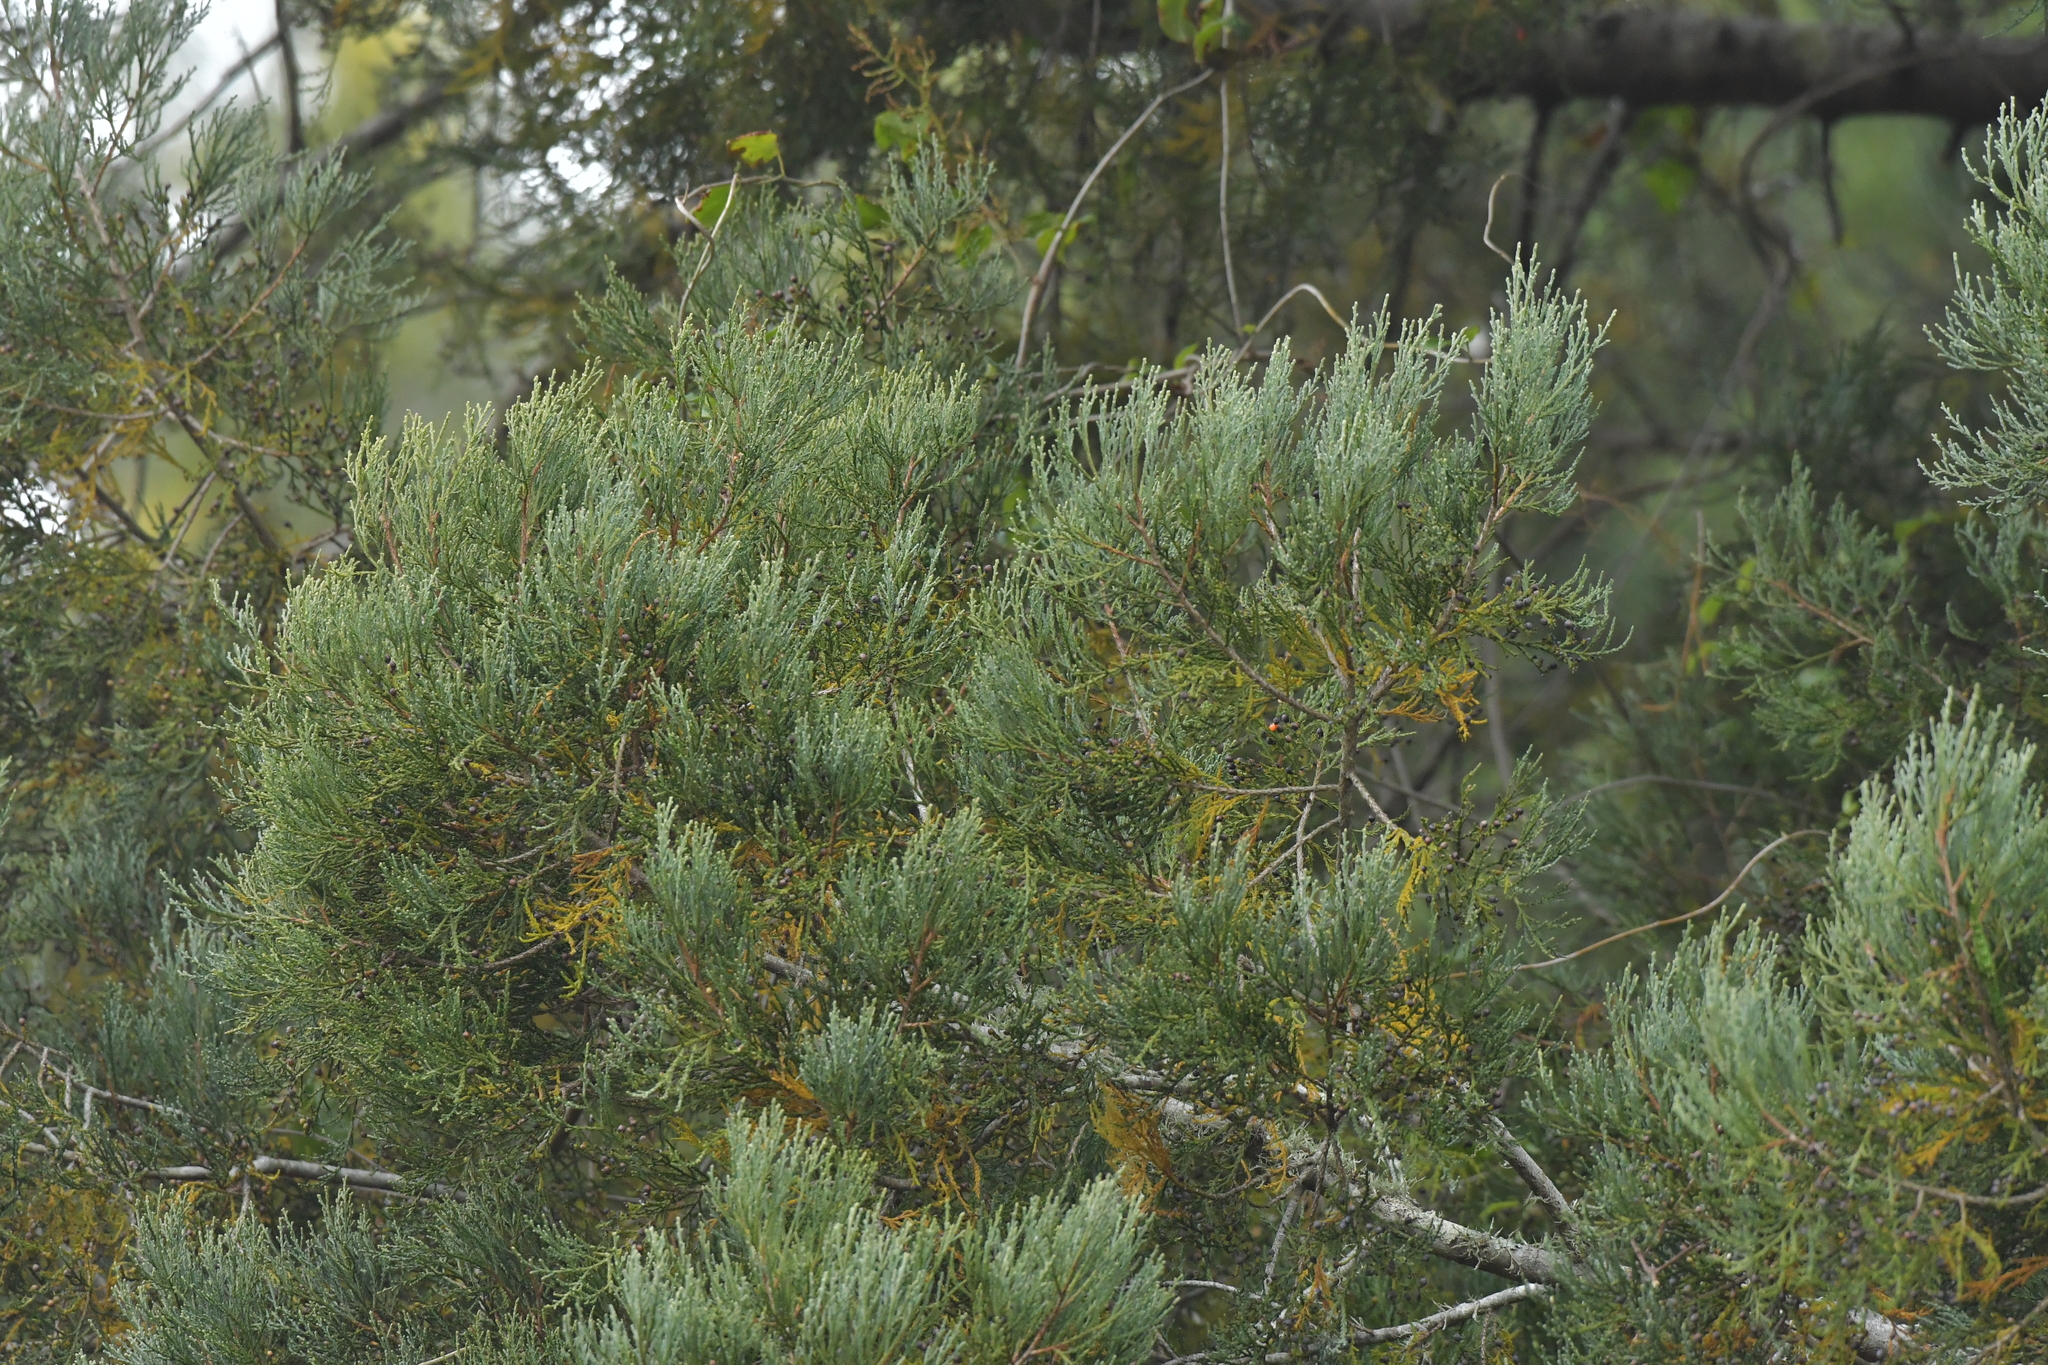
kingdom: Plantae
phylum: Tracheophyta
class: Pinopsida
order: Pinales
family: Podocarpaceae
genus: Dacrycarpus
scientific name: Dacrycarpus dacrydioides
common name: White pine
